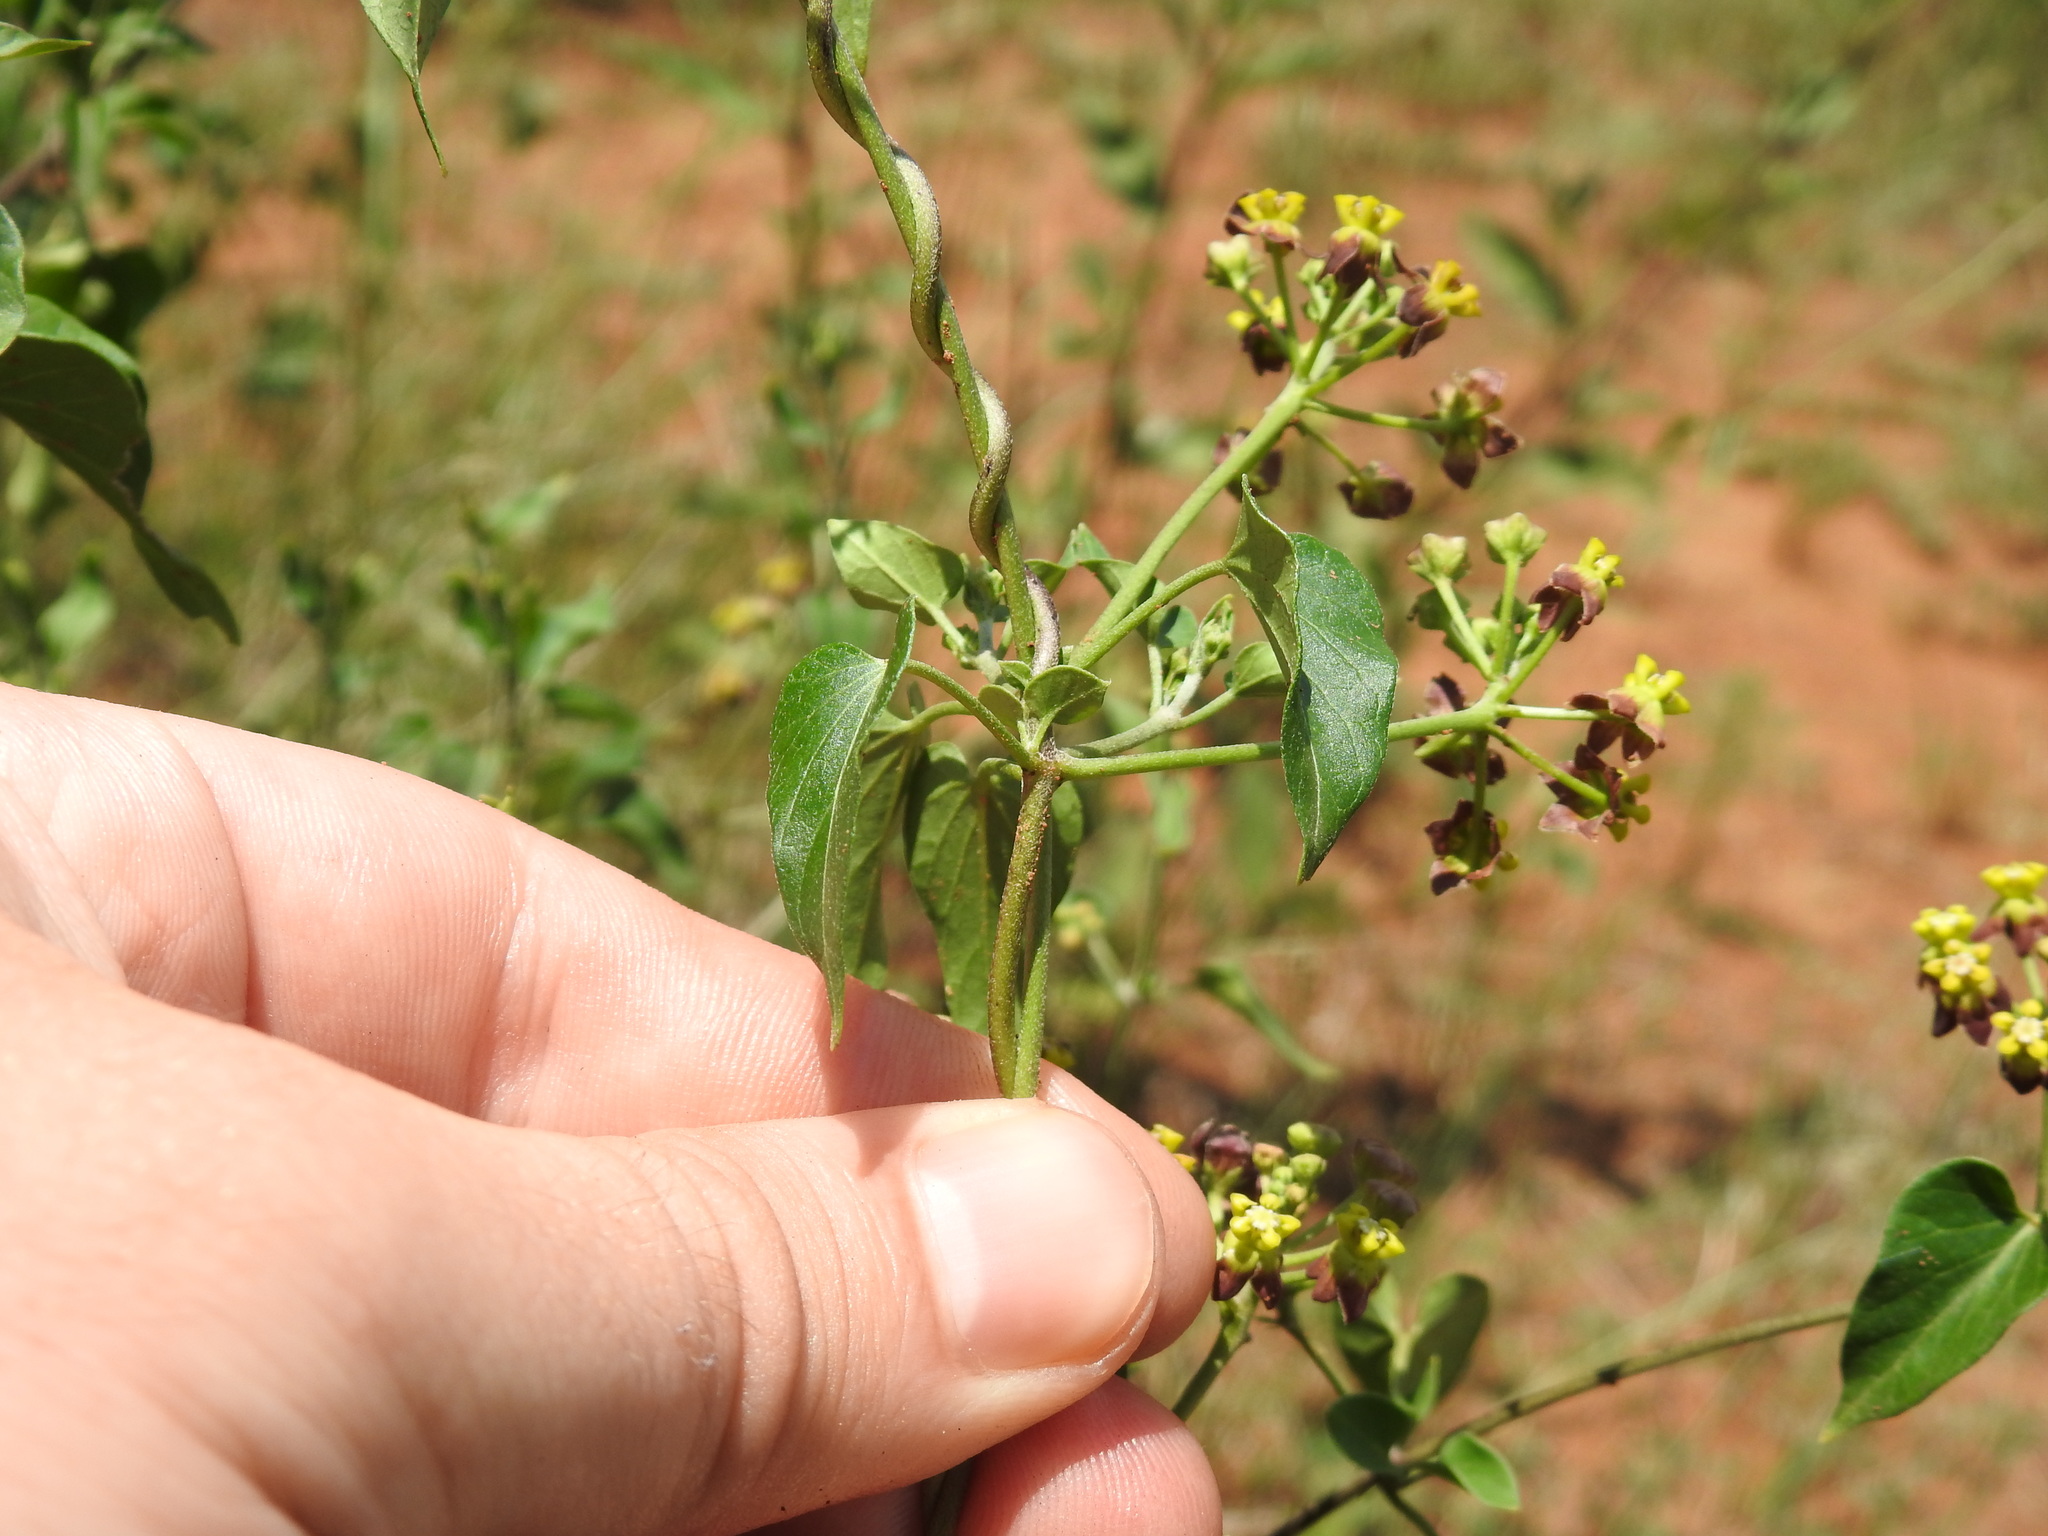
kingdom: Plantae
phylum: Tracheophyta
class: Magnoliopsida
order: Gentianales
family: Apocynaceae
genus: Cynanchum
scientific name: Cynanchum
